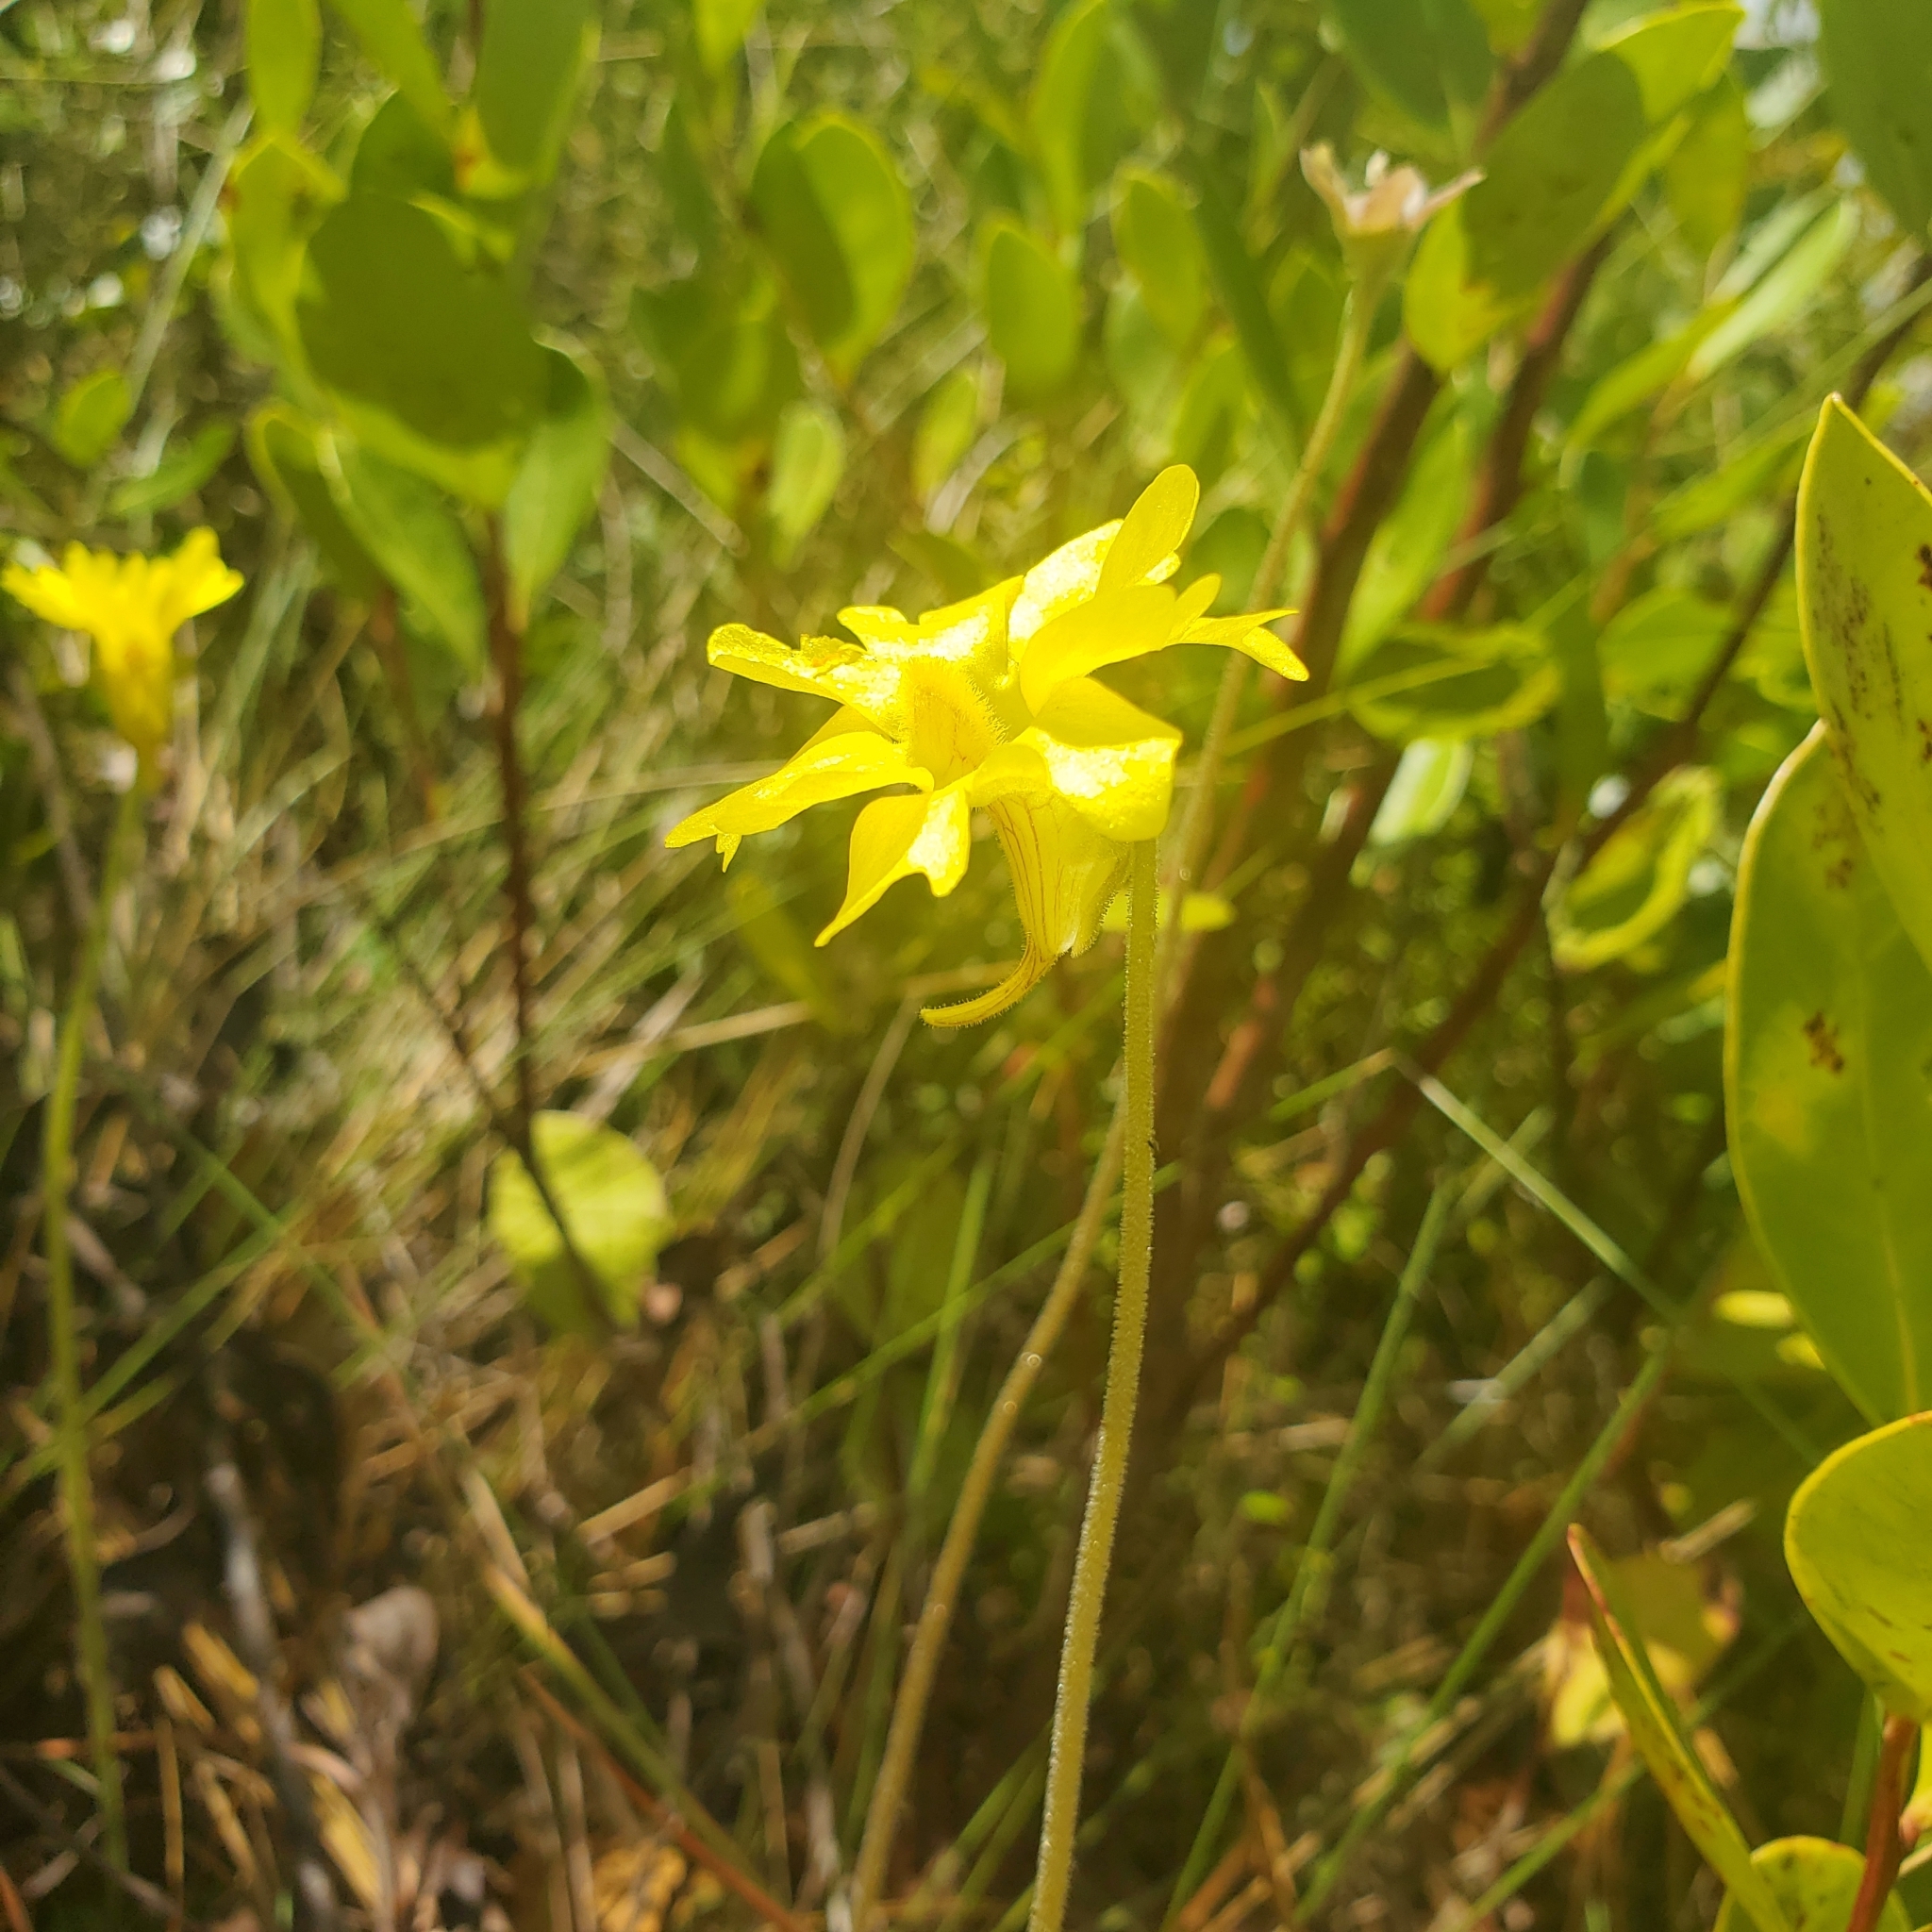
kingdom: Plantae
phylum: Tracheophyta
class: Magnoliopsida
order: Lamiales
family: Lentibulariaceae
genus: Pinguicula
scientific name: Pinguicula lutea
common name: Yellow butterwort
